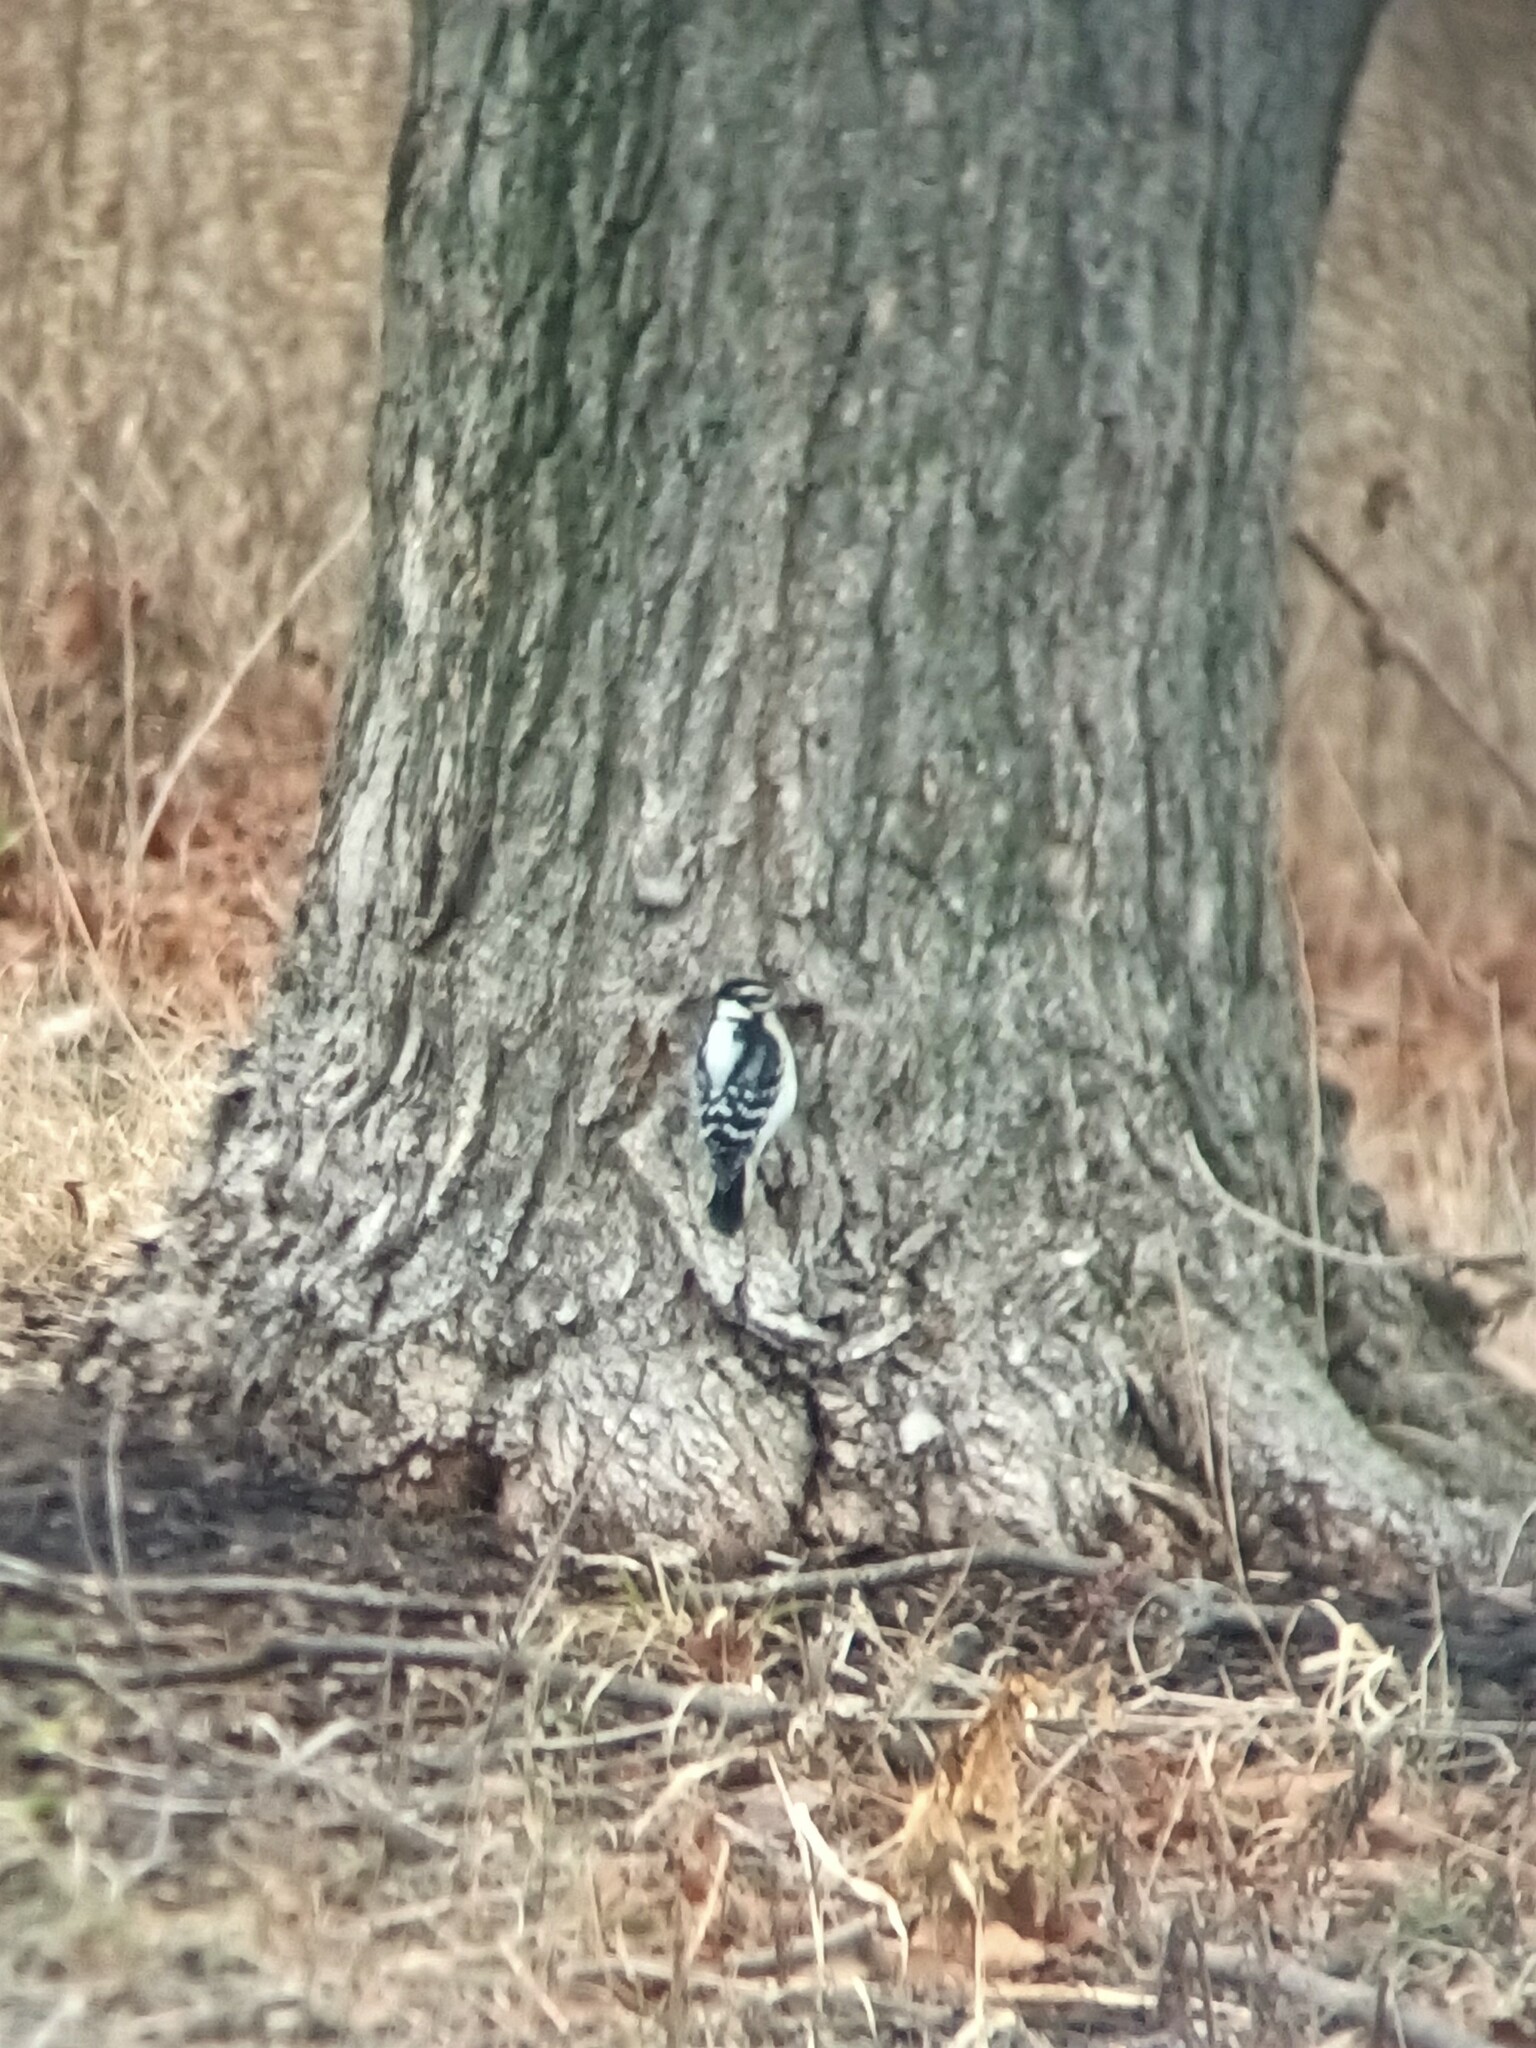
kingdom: Animalia
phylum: Chordata
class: Aves
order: Piciformes
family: Picidae
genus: Dryobates
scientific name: Dryobates pubescens
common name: Downy woodpecker
